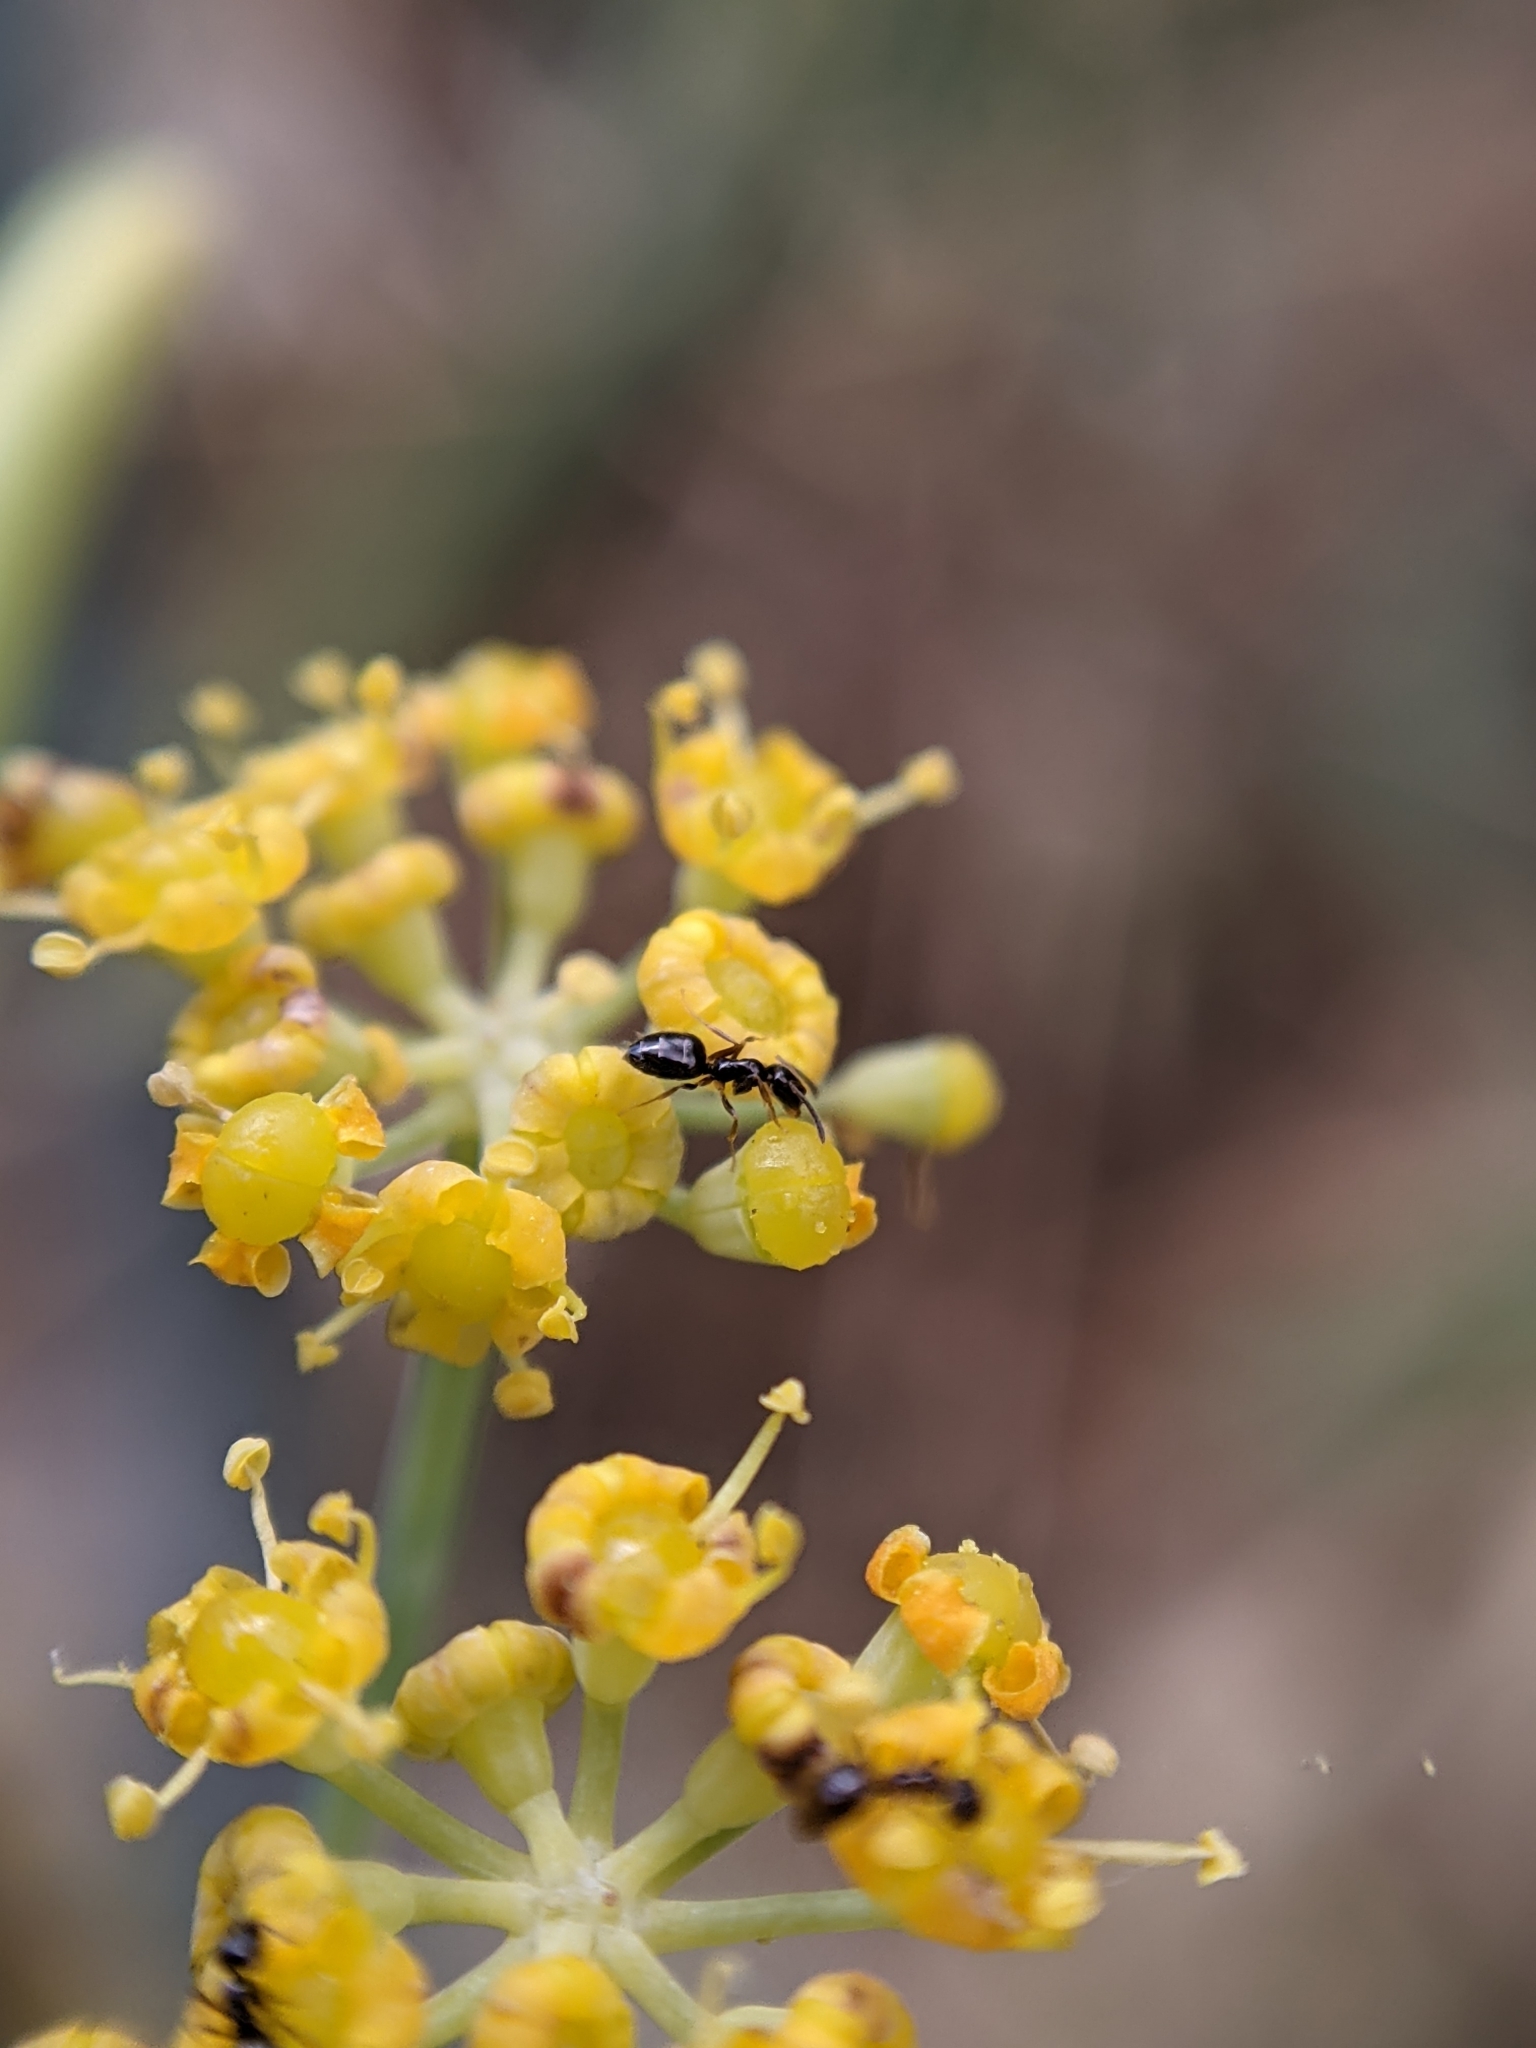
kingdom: Plantae
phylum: Tracheophyta
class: Magnoliopsida
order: Apiales
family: Apiaceae
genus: Foeniculum
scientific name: Foeniculum vulgare
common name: Fennel
